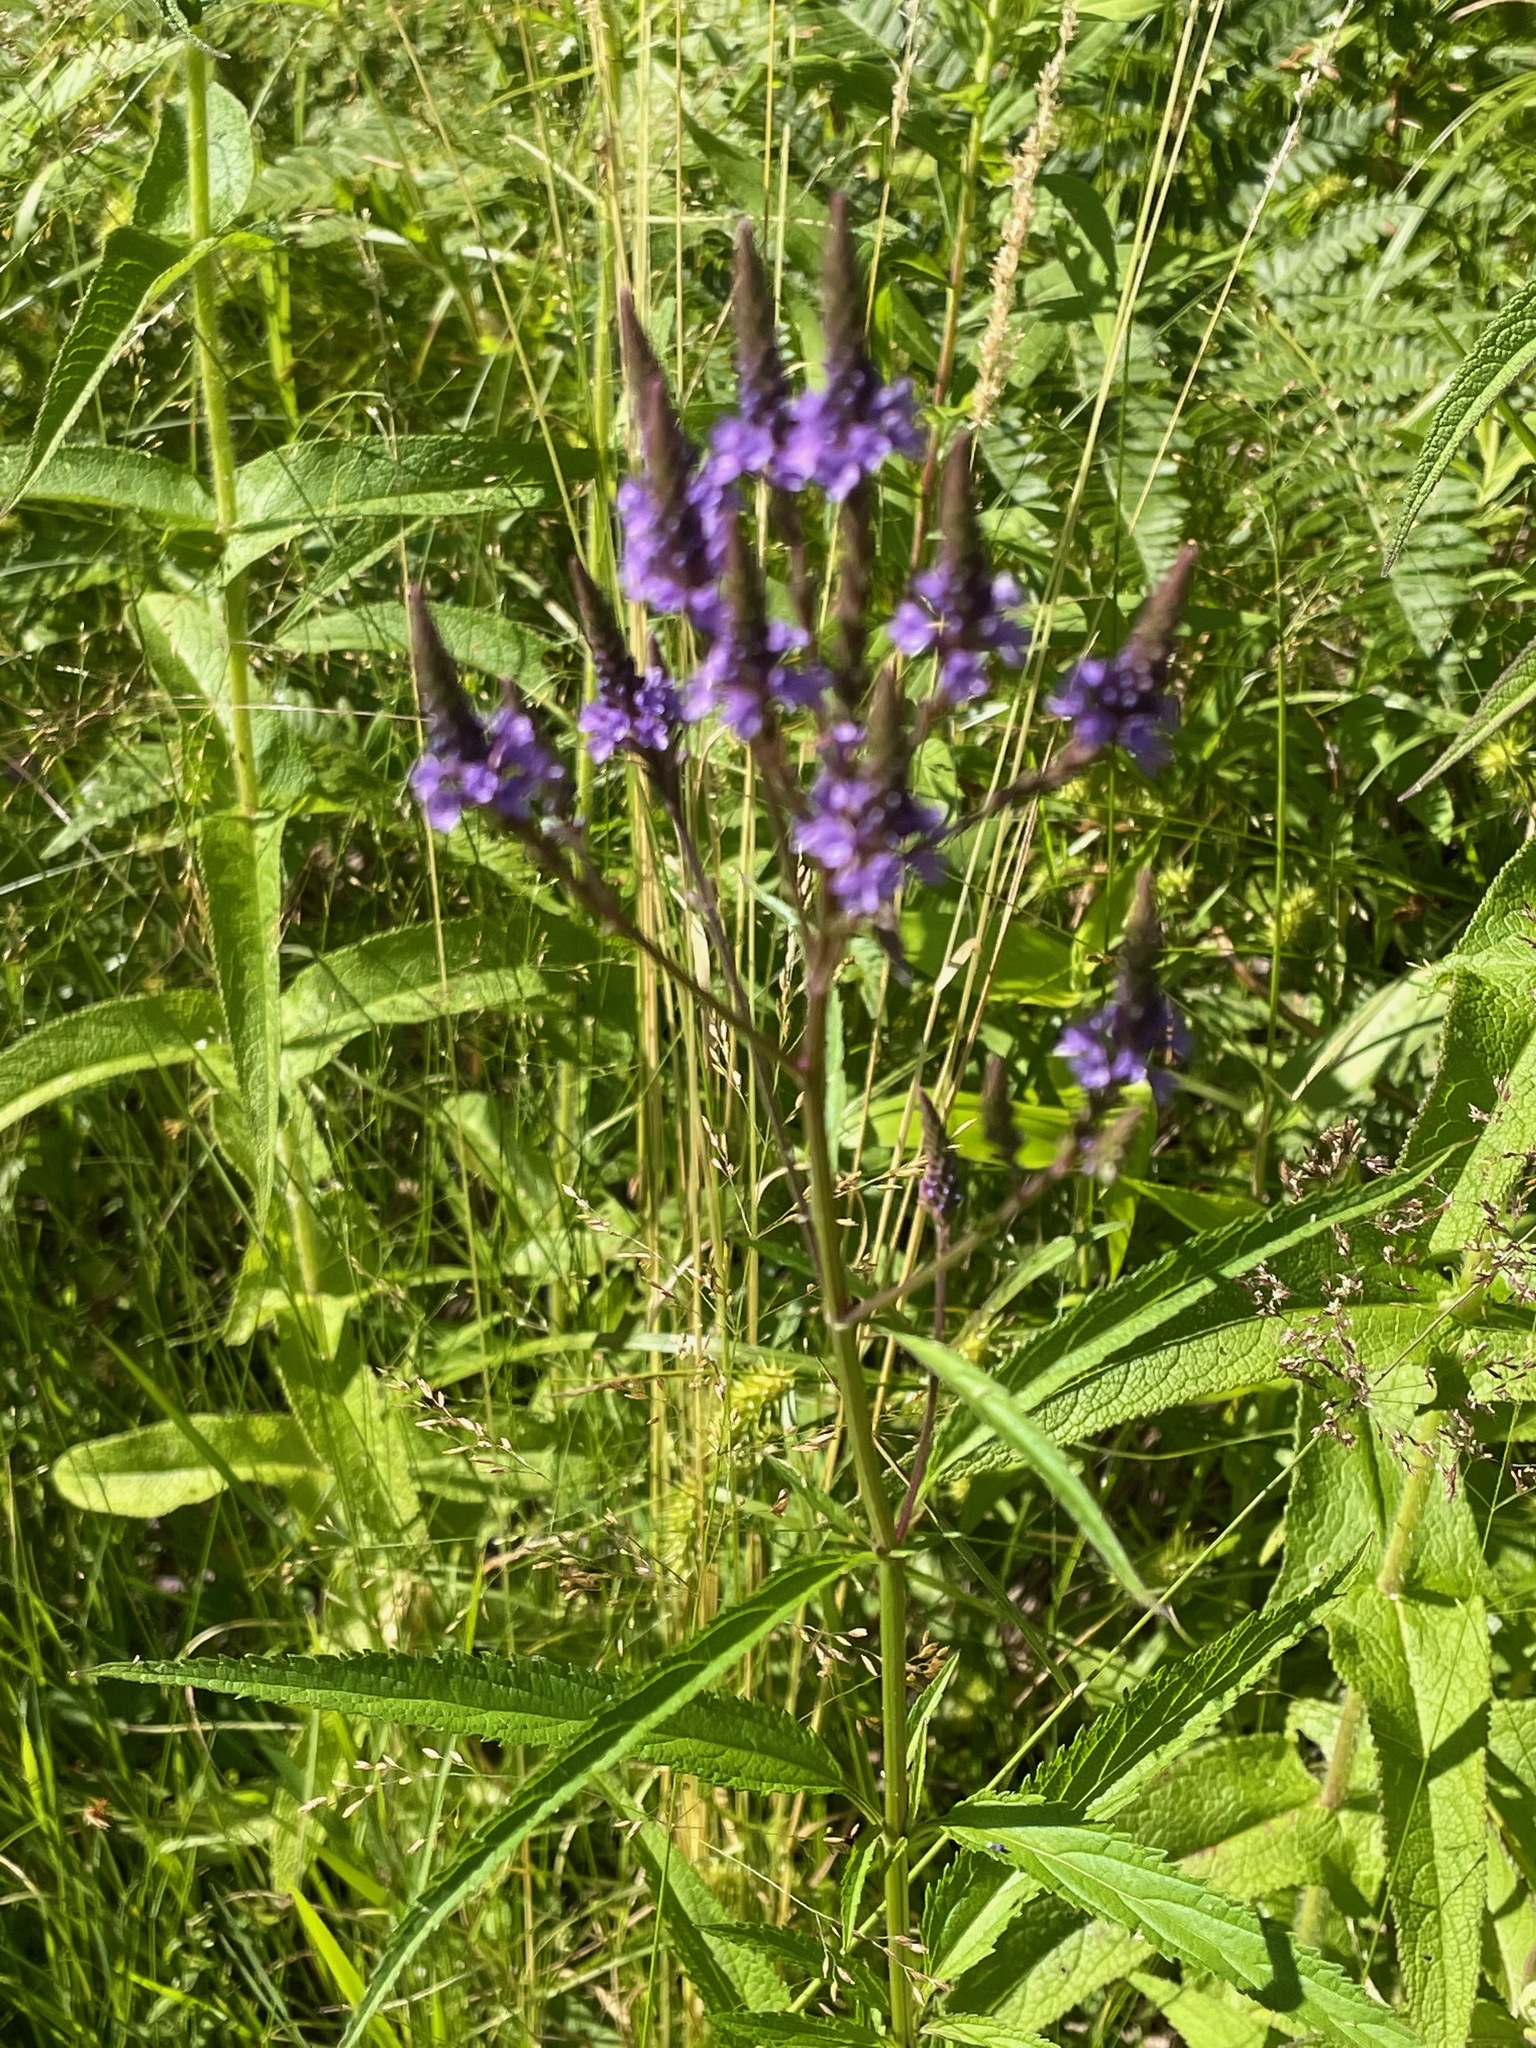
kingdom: Plantae
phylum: Tracheophyta
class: Magnoliopsida
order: Lamiales
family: Verbenaceae
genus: Verbena
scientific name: Verbena hastata
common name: American blue vervain
